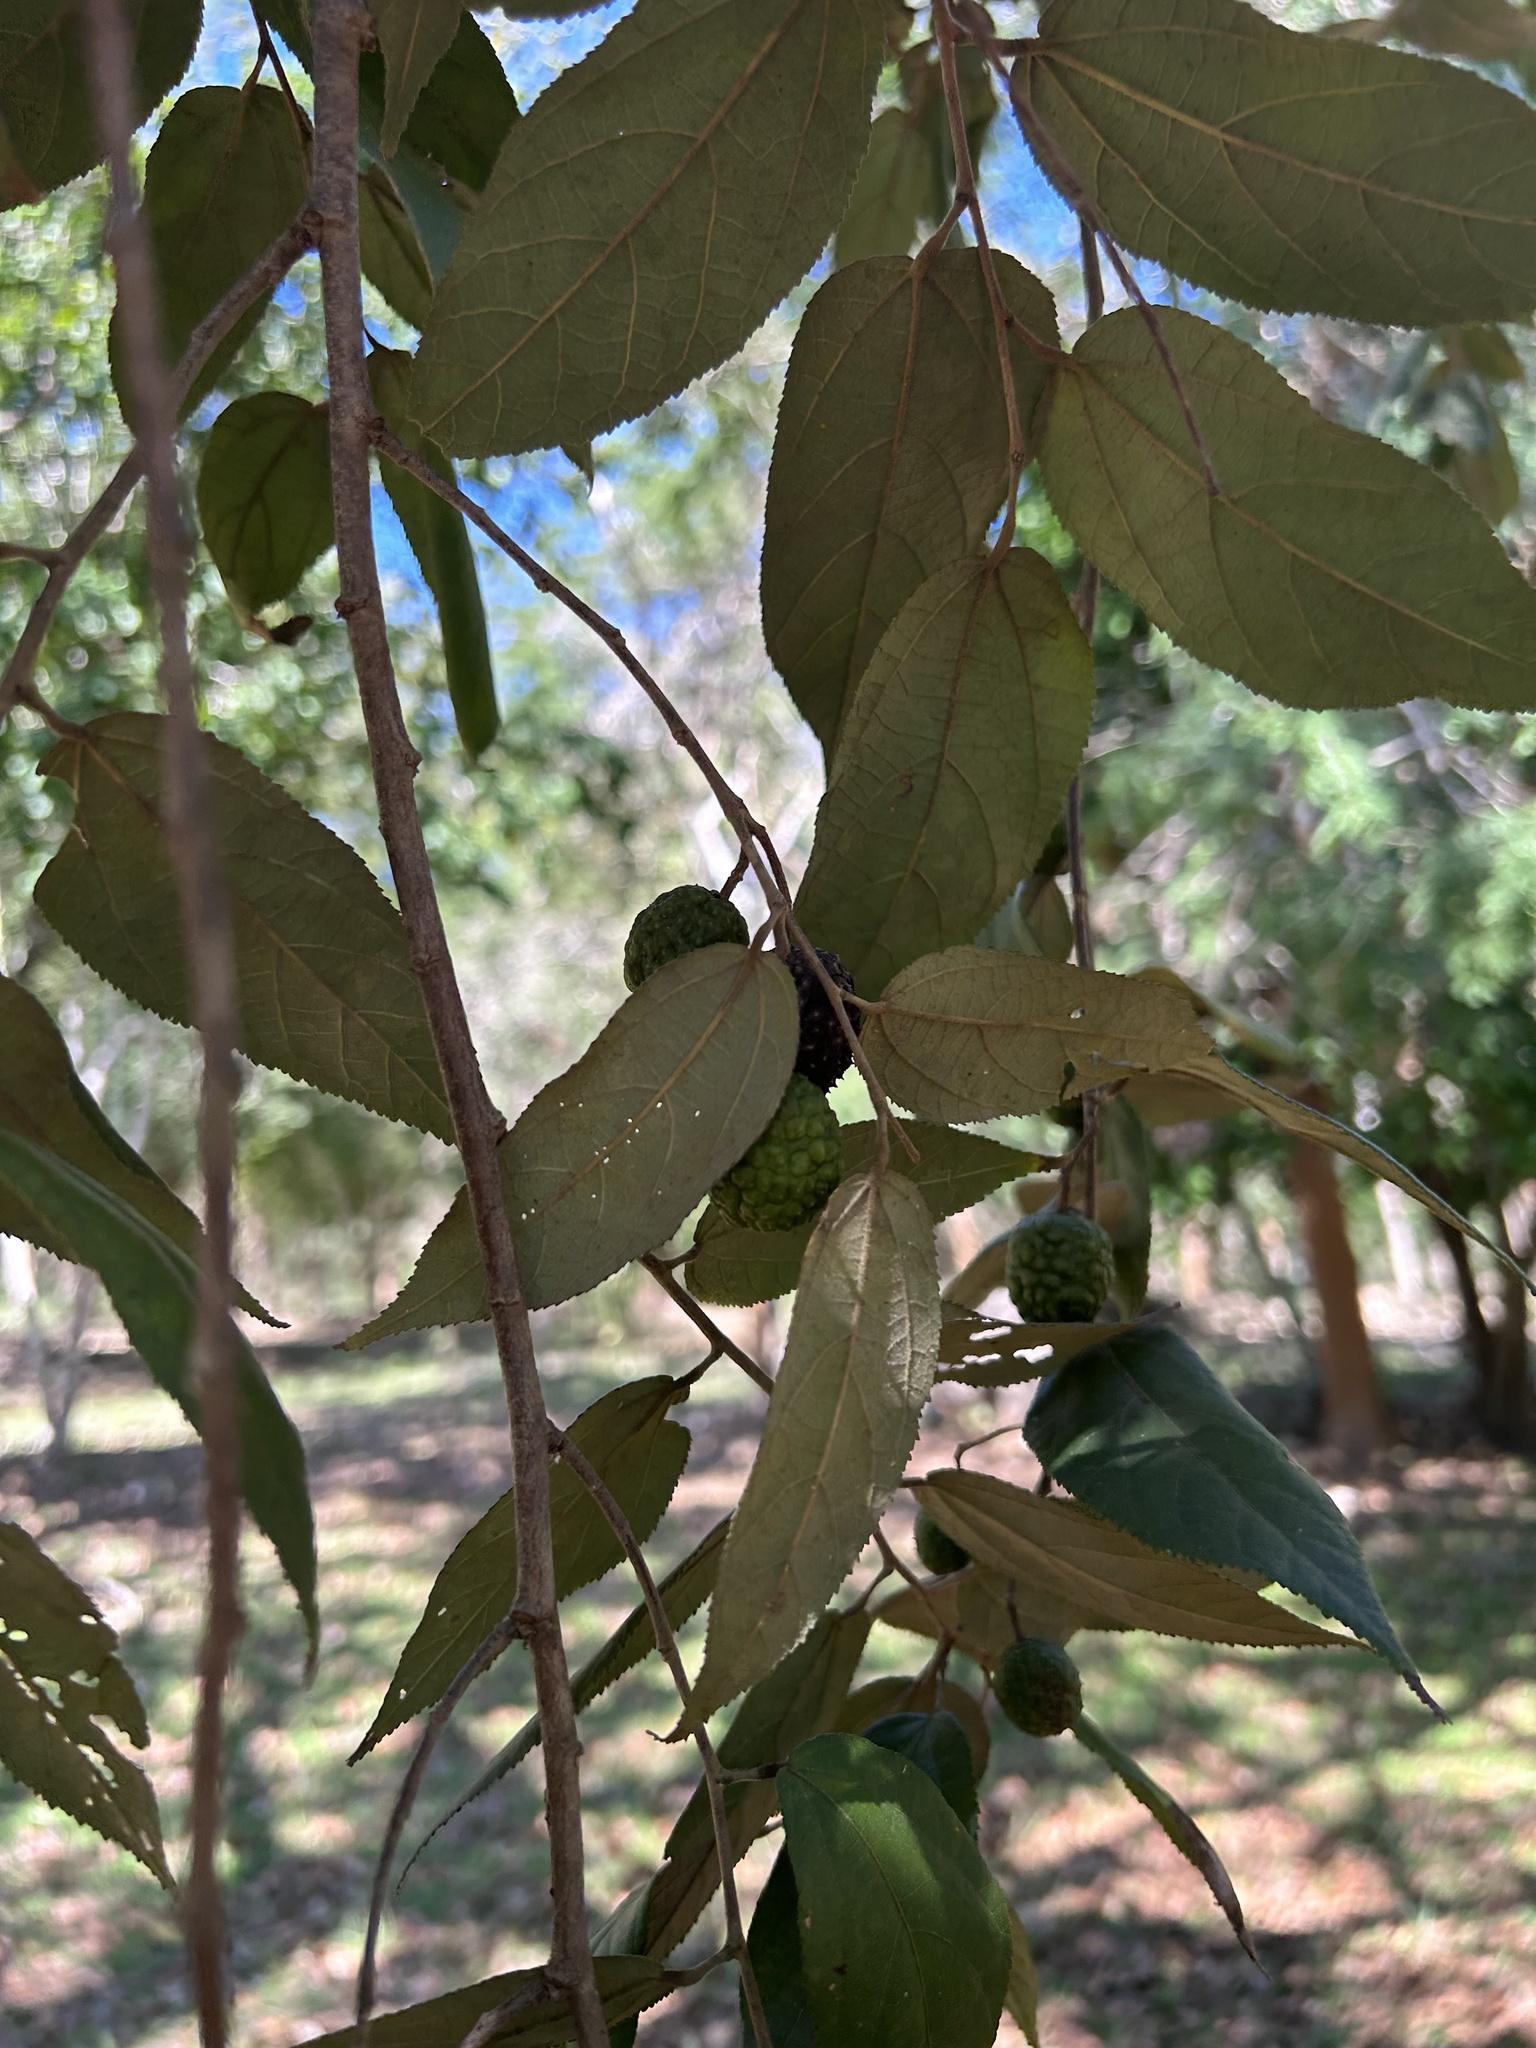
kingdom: Plantae
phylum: Tracheophyta
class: Magnoliopsida
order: Malvales
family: Malvaceae
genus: Guazuma
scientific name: Guazuma ulmifolia
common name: Bastard-cedar
